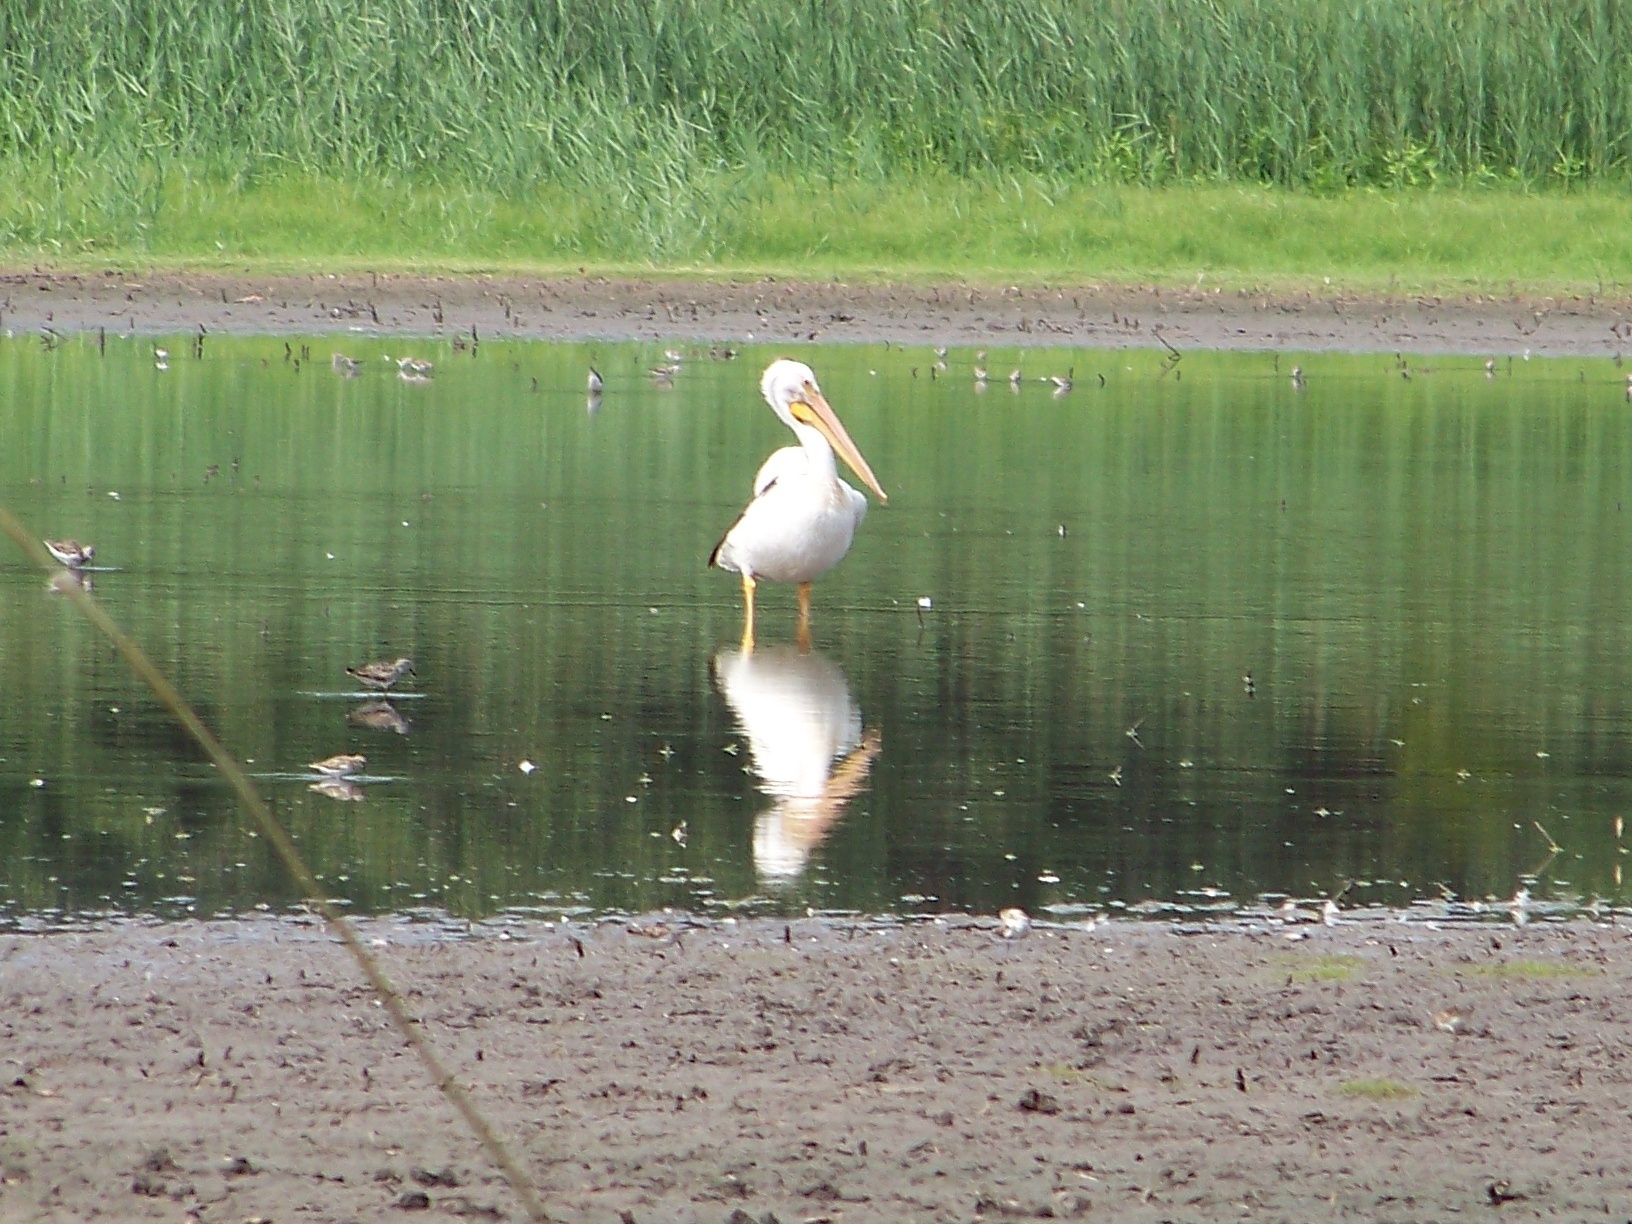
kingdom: Animalia
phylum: Chordata
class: Aves
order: Pelecaniformes
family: Pelecanidae
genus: Pelecanus
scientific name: Pelecanus erythrorhynchos
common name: American white pelican
